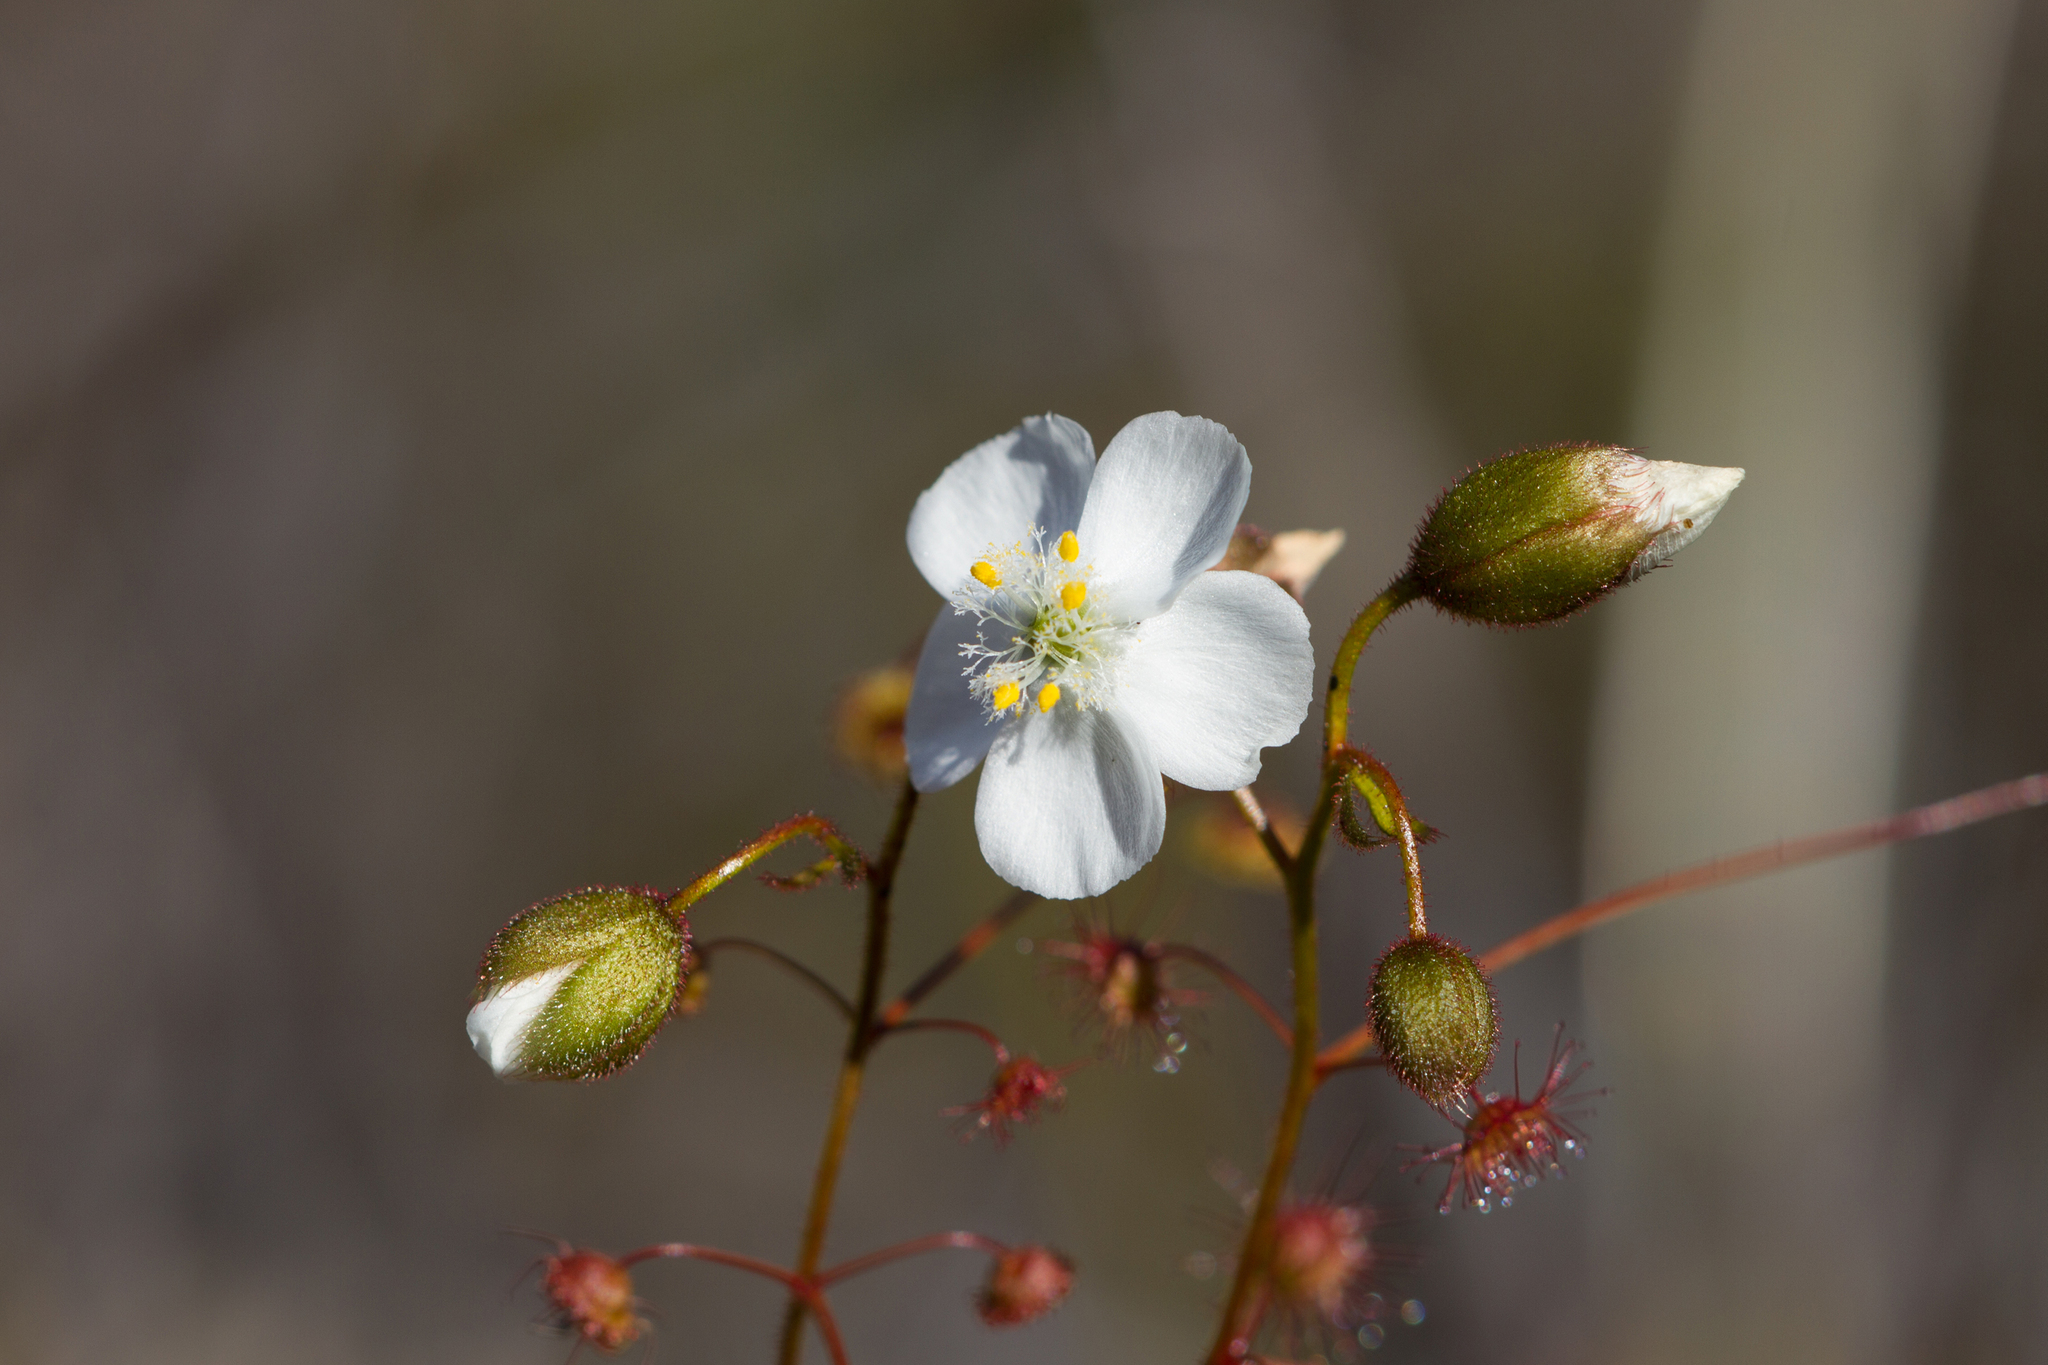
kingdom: Plantae
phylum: Tracheophyta
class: Magnoliopsida
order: Caryophyllales
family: Droseraceae
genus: Drosera
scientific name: Drosera planchonii
